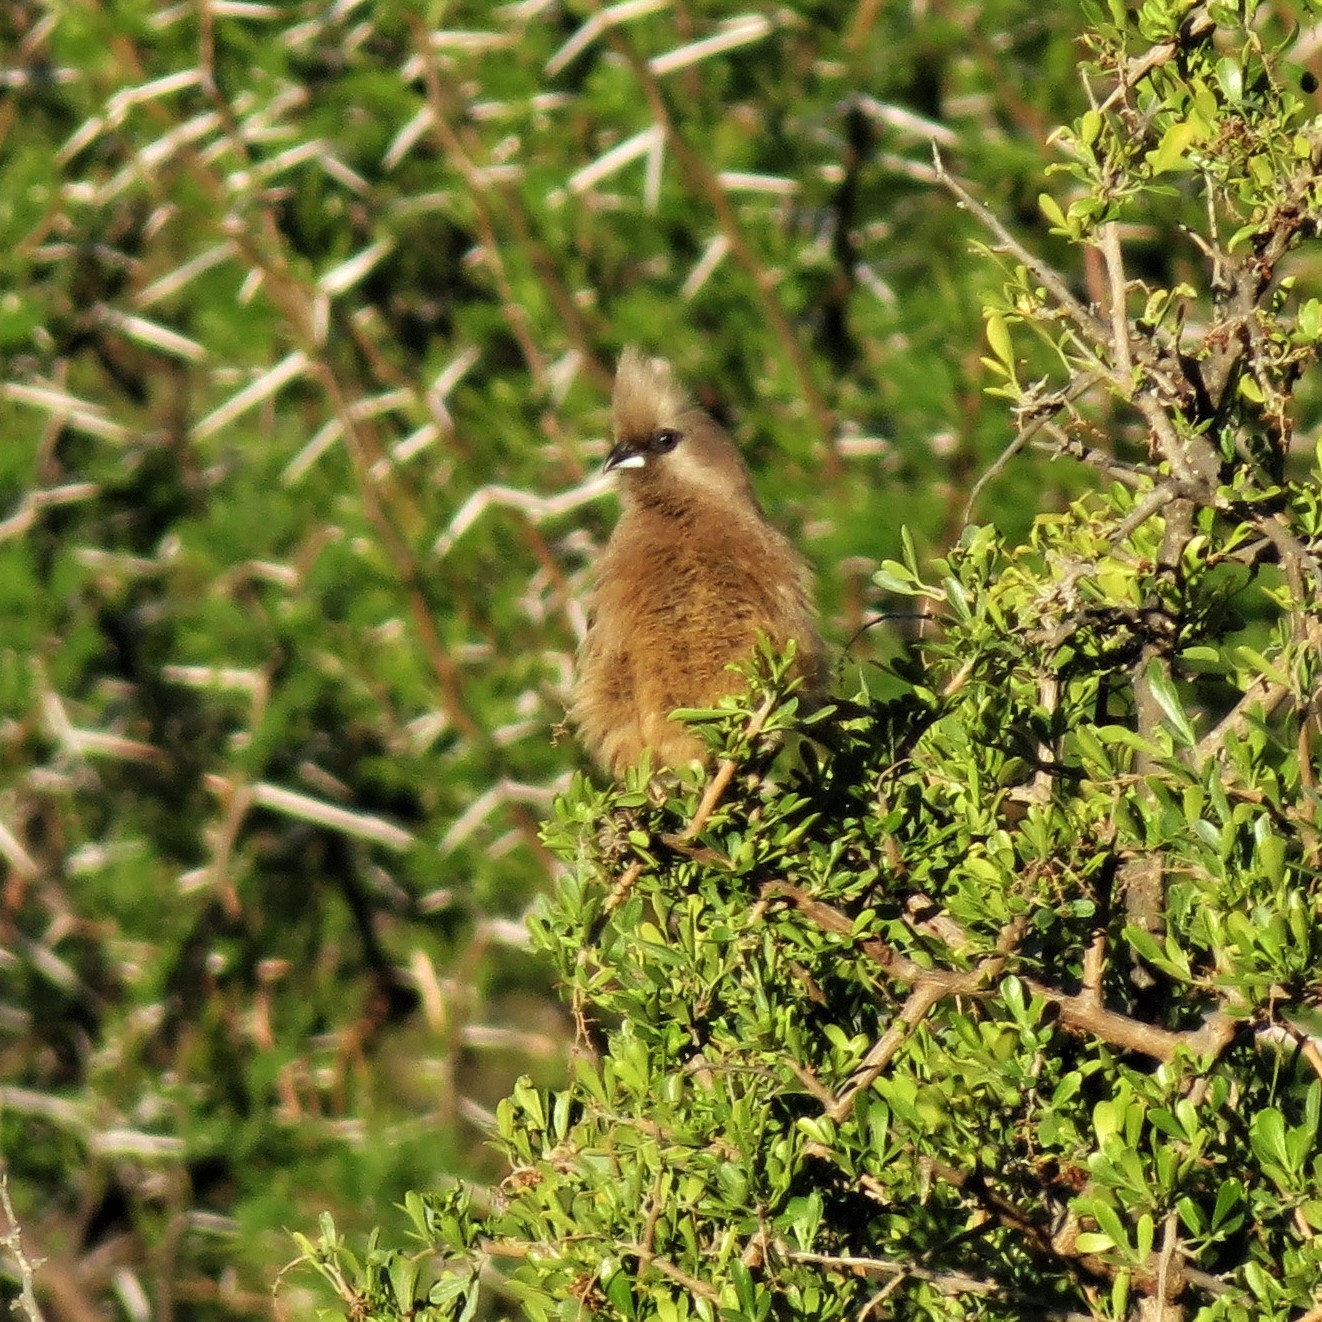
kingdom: Animalia
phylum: Chordata
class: Aves
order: Coliiformes
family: Coliidae
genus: Colius
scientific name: Colius striatus
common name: Speckled mousebird
